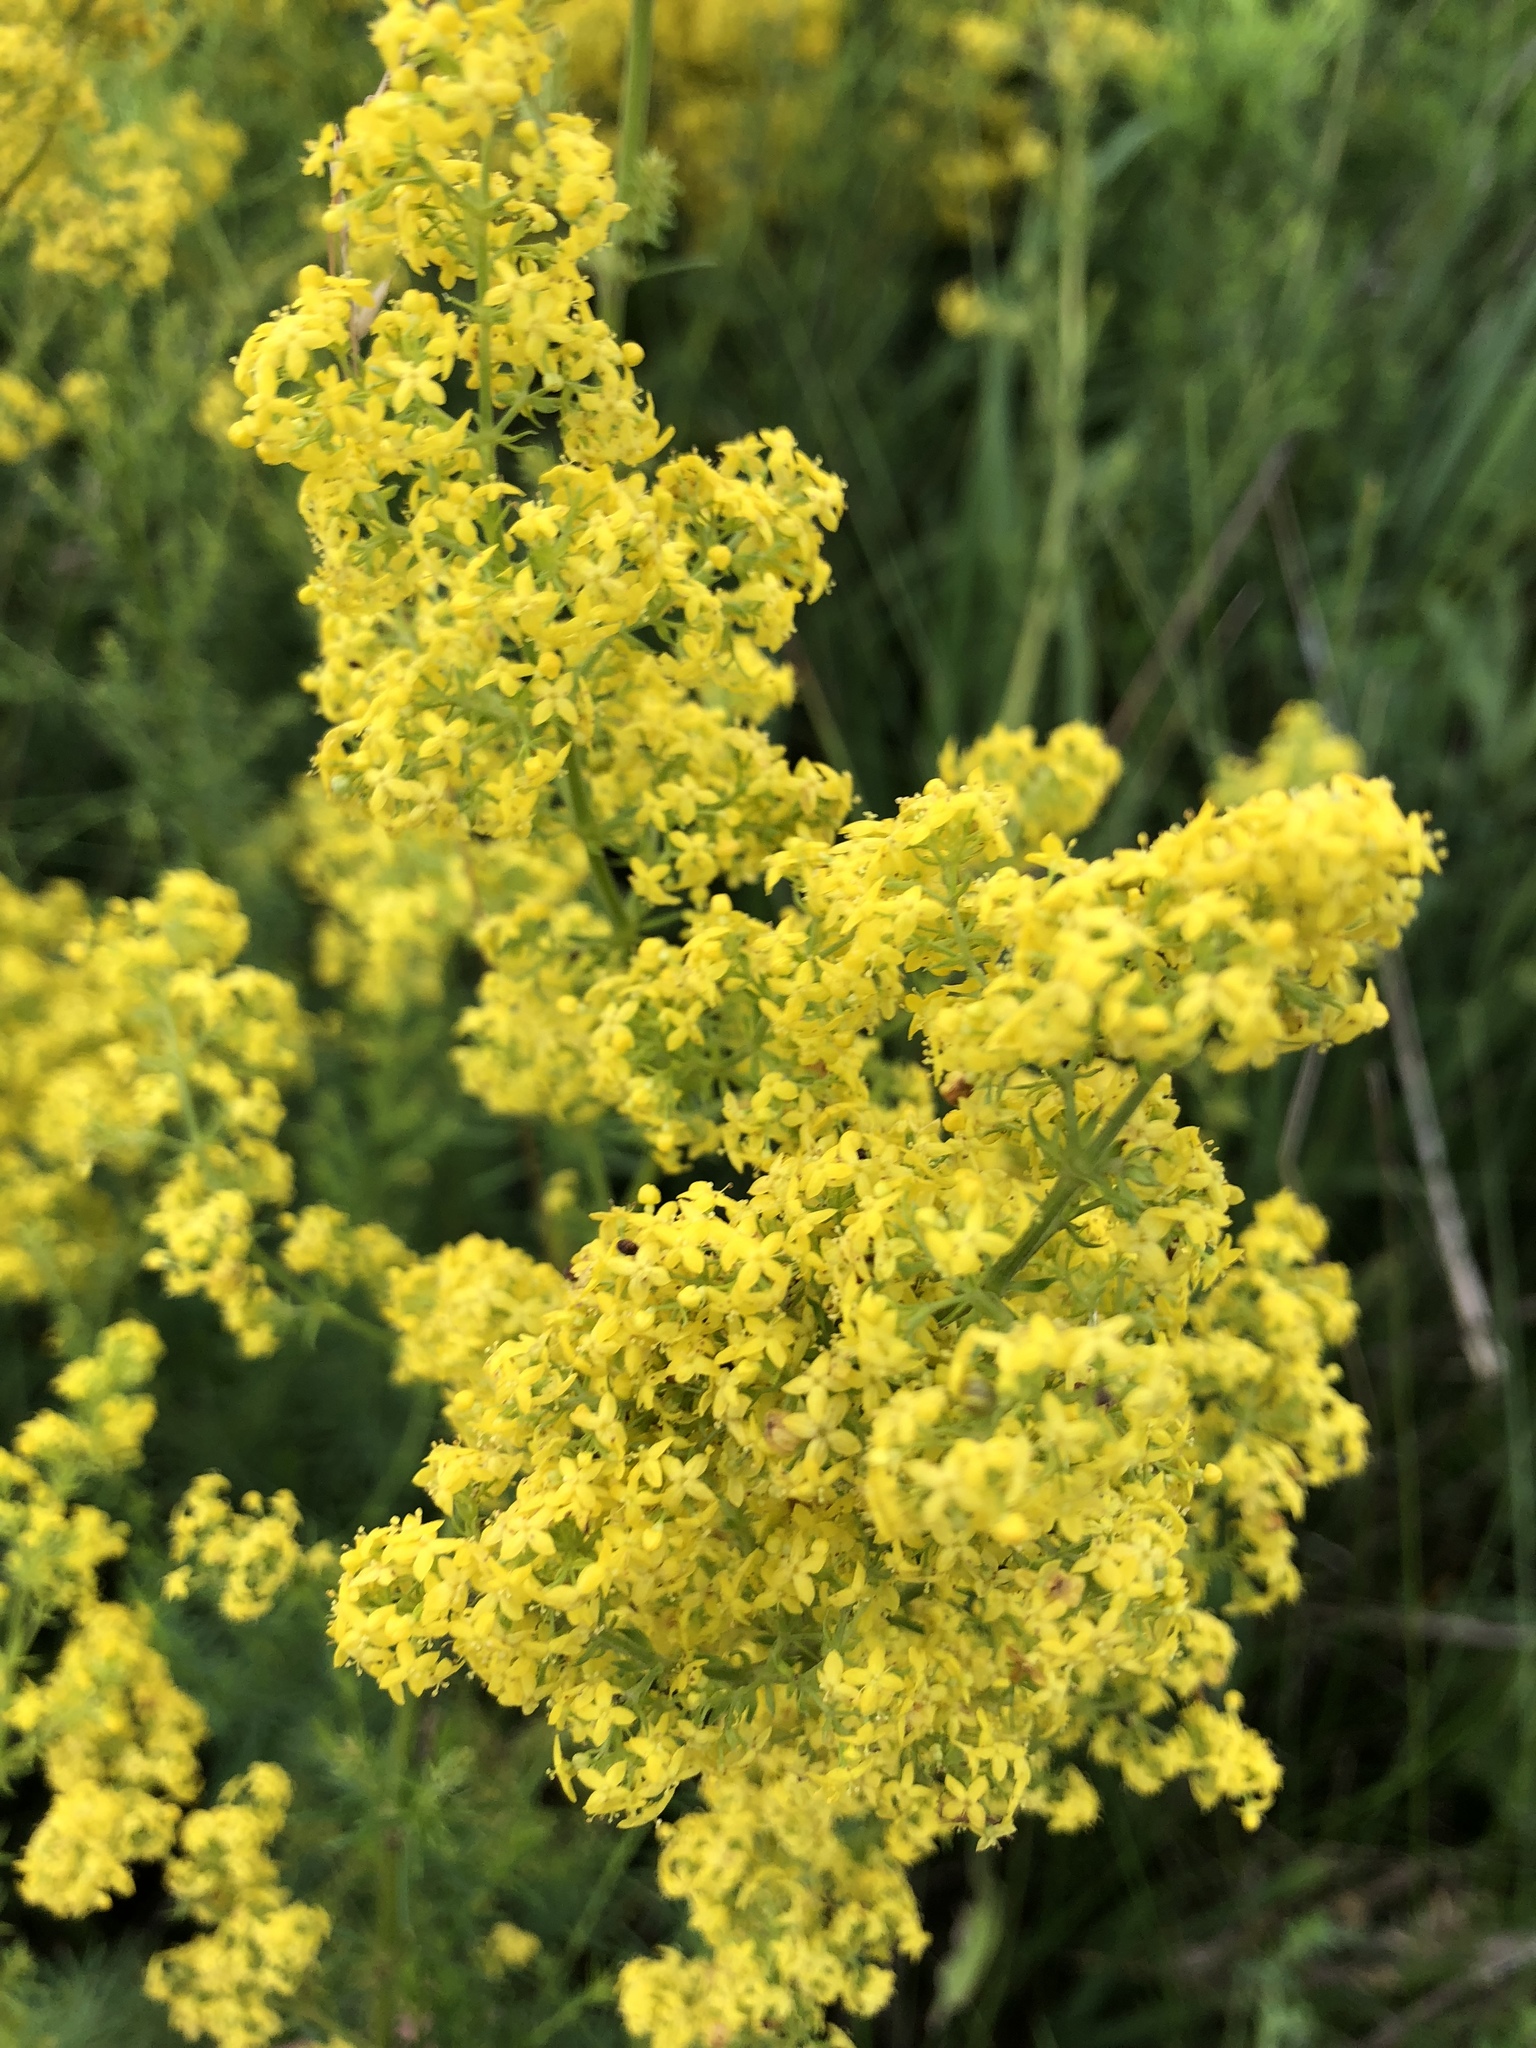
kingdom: Plantae
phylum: Tracheophyta
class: Magnoliopsida
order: Gentianales
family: Rubiaceae
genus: Galium
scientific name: Galium verum
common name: Lady's bedstraw
